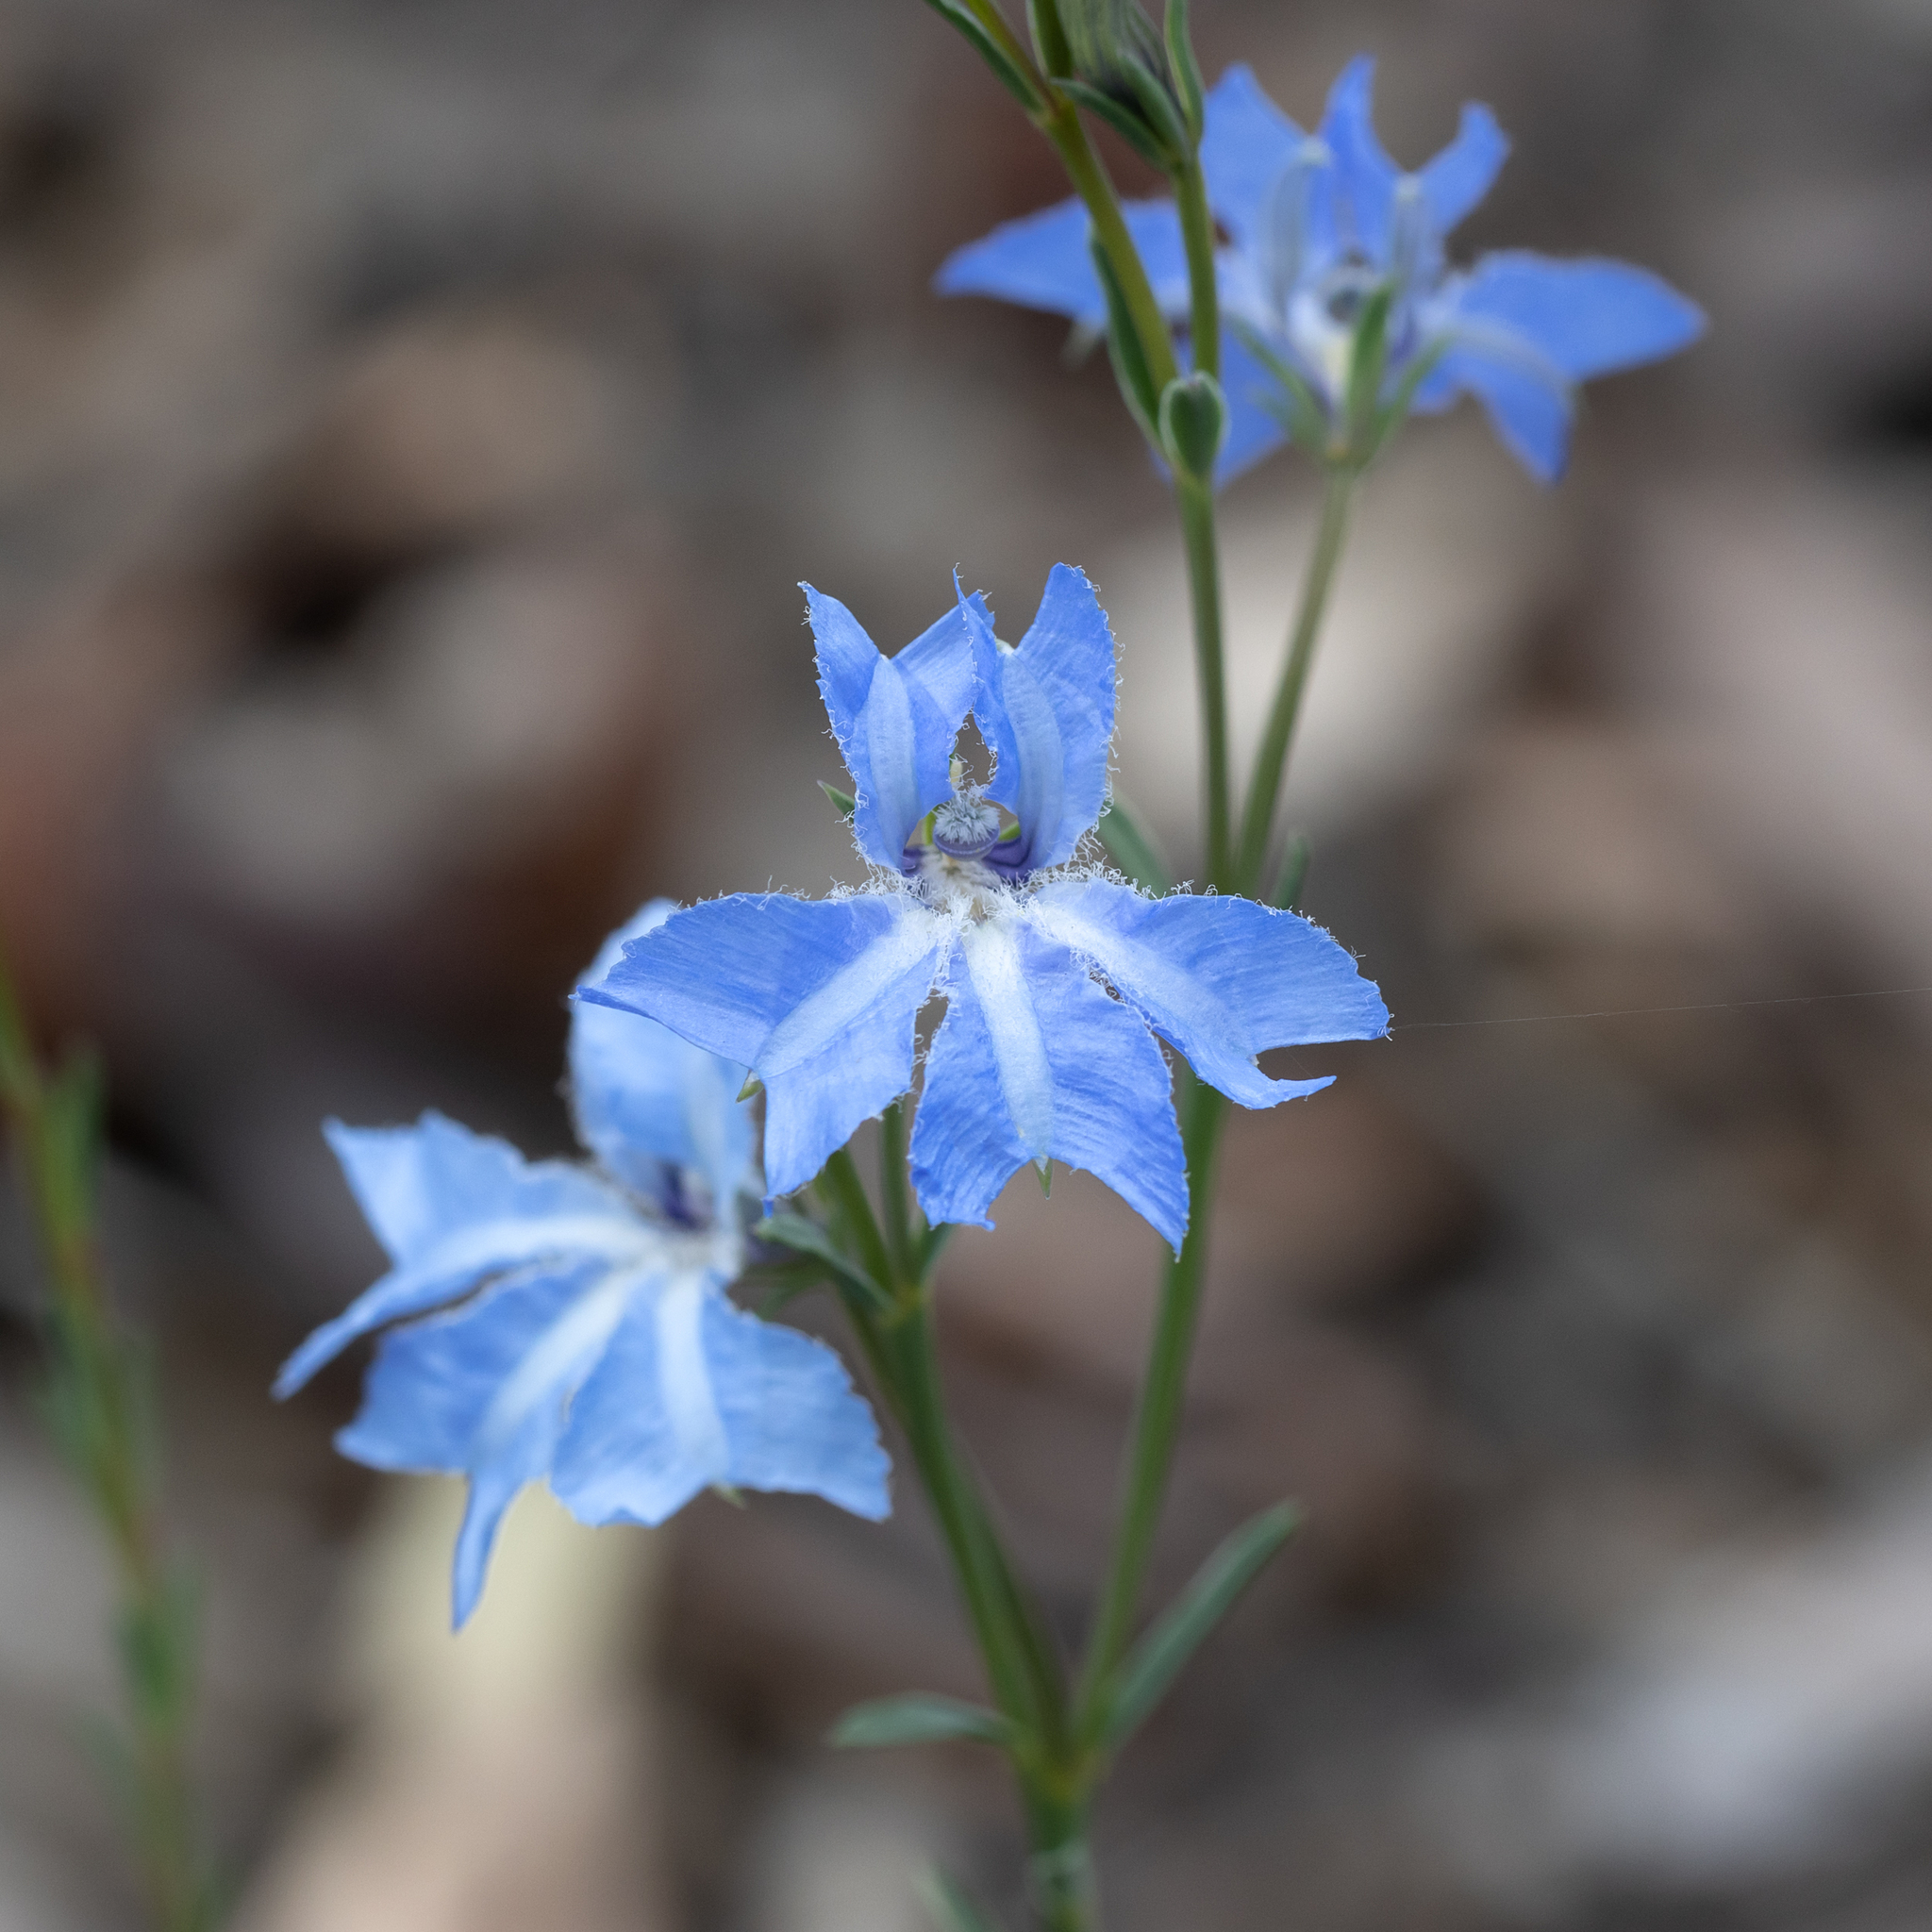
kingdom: Plantae
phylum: Tracheophyta
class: Magnoliopsida
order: Asterales
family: Goodeniaceae
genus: Lechenaultia
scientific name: Lechenaultia biloba
